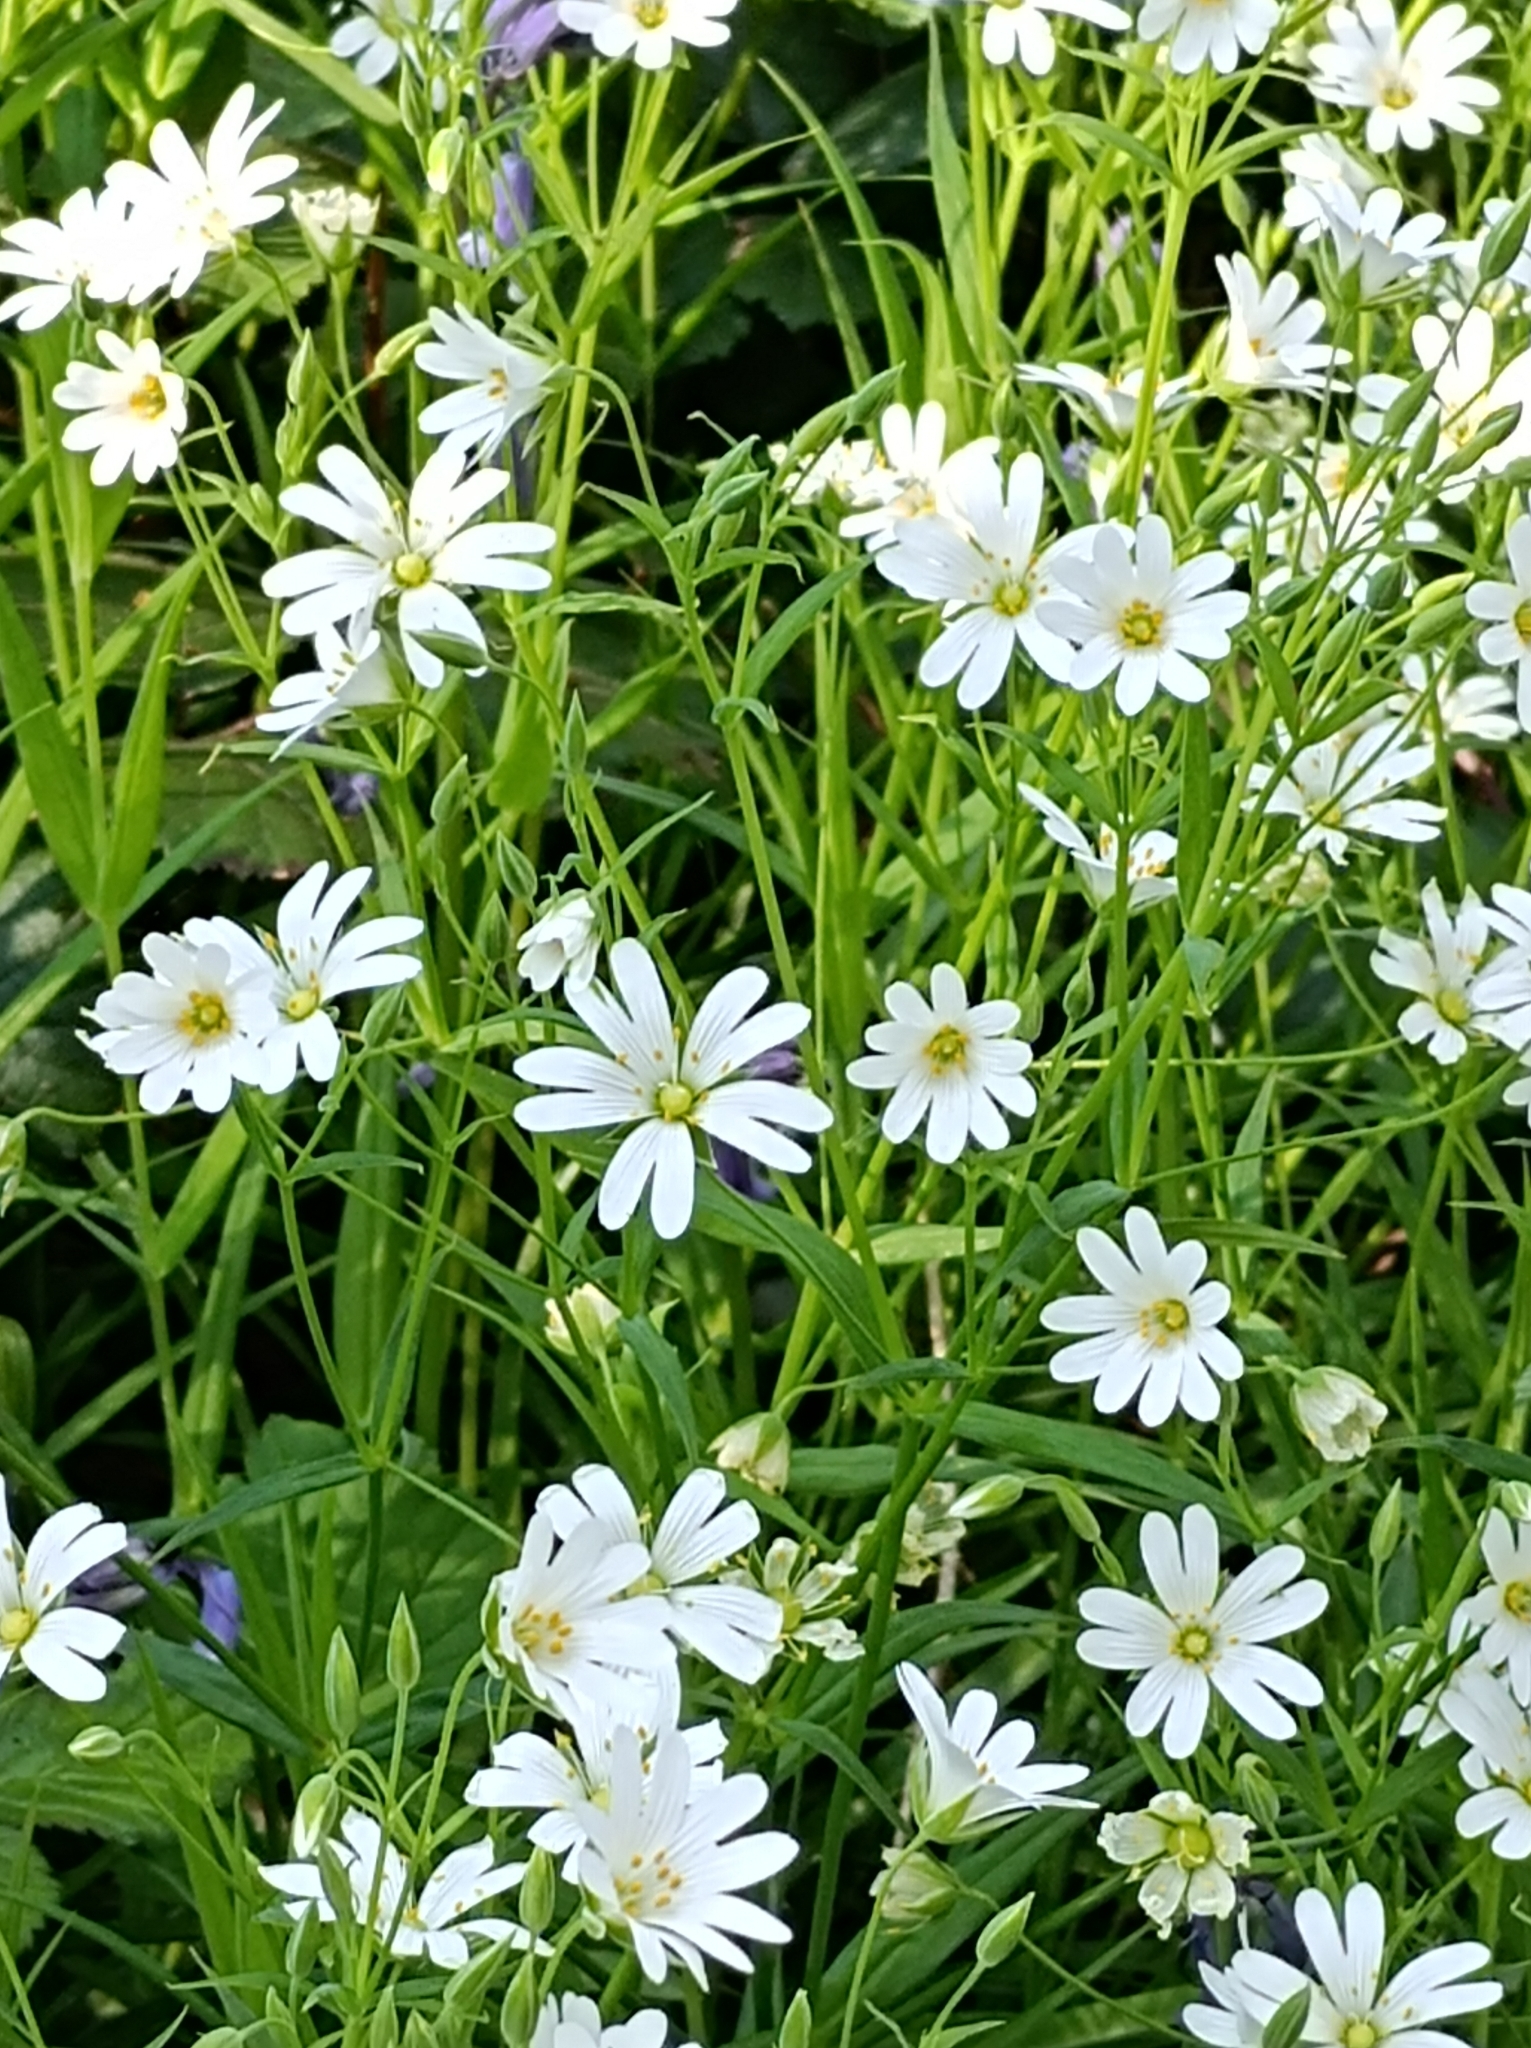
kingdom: Plantae
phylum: Tracheophyta
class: Magnoliopsida
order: Caryophyllales
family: Caryophyllaceae
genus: Rabelera
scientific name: Rabelera holostea
